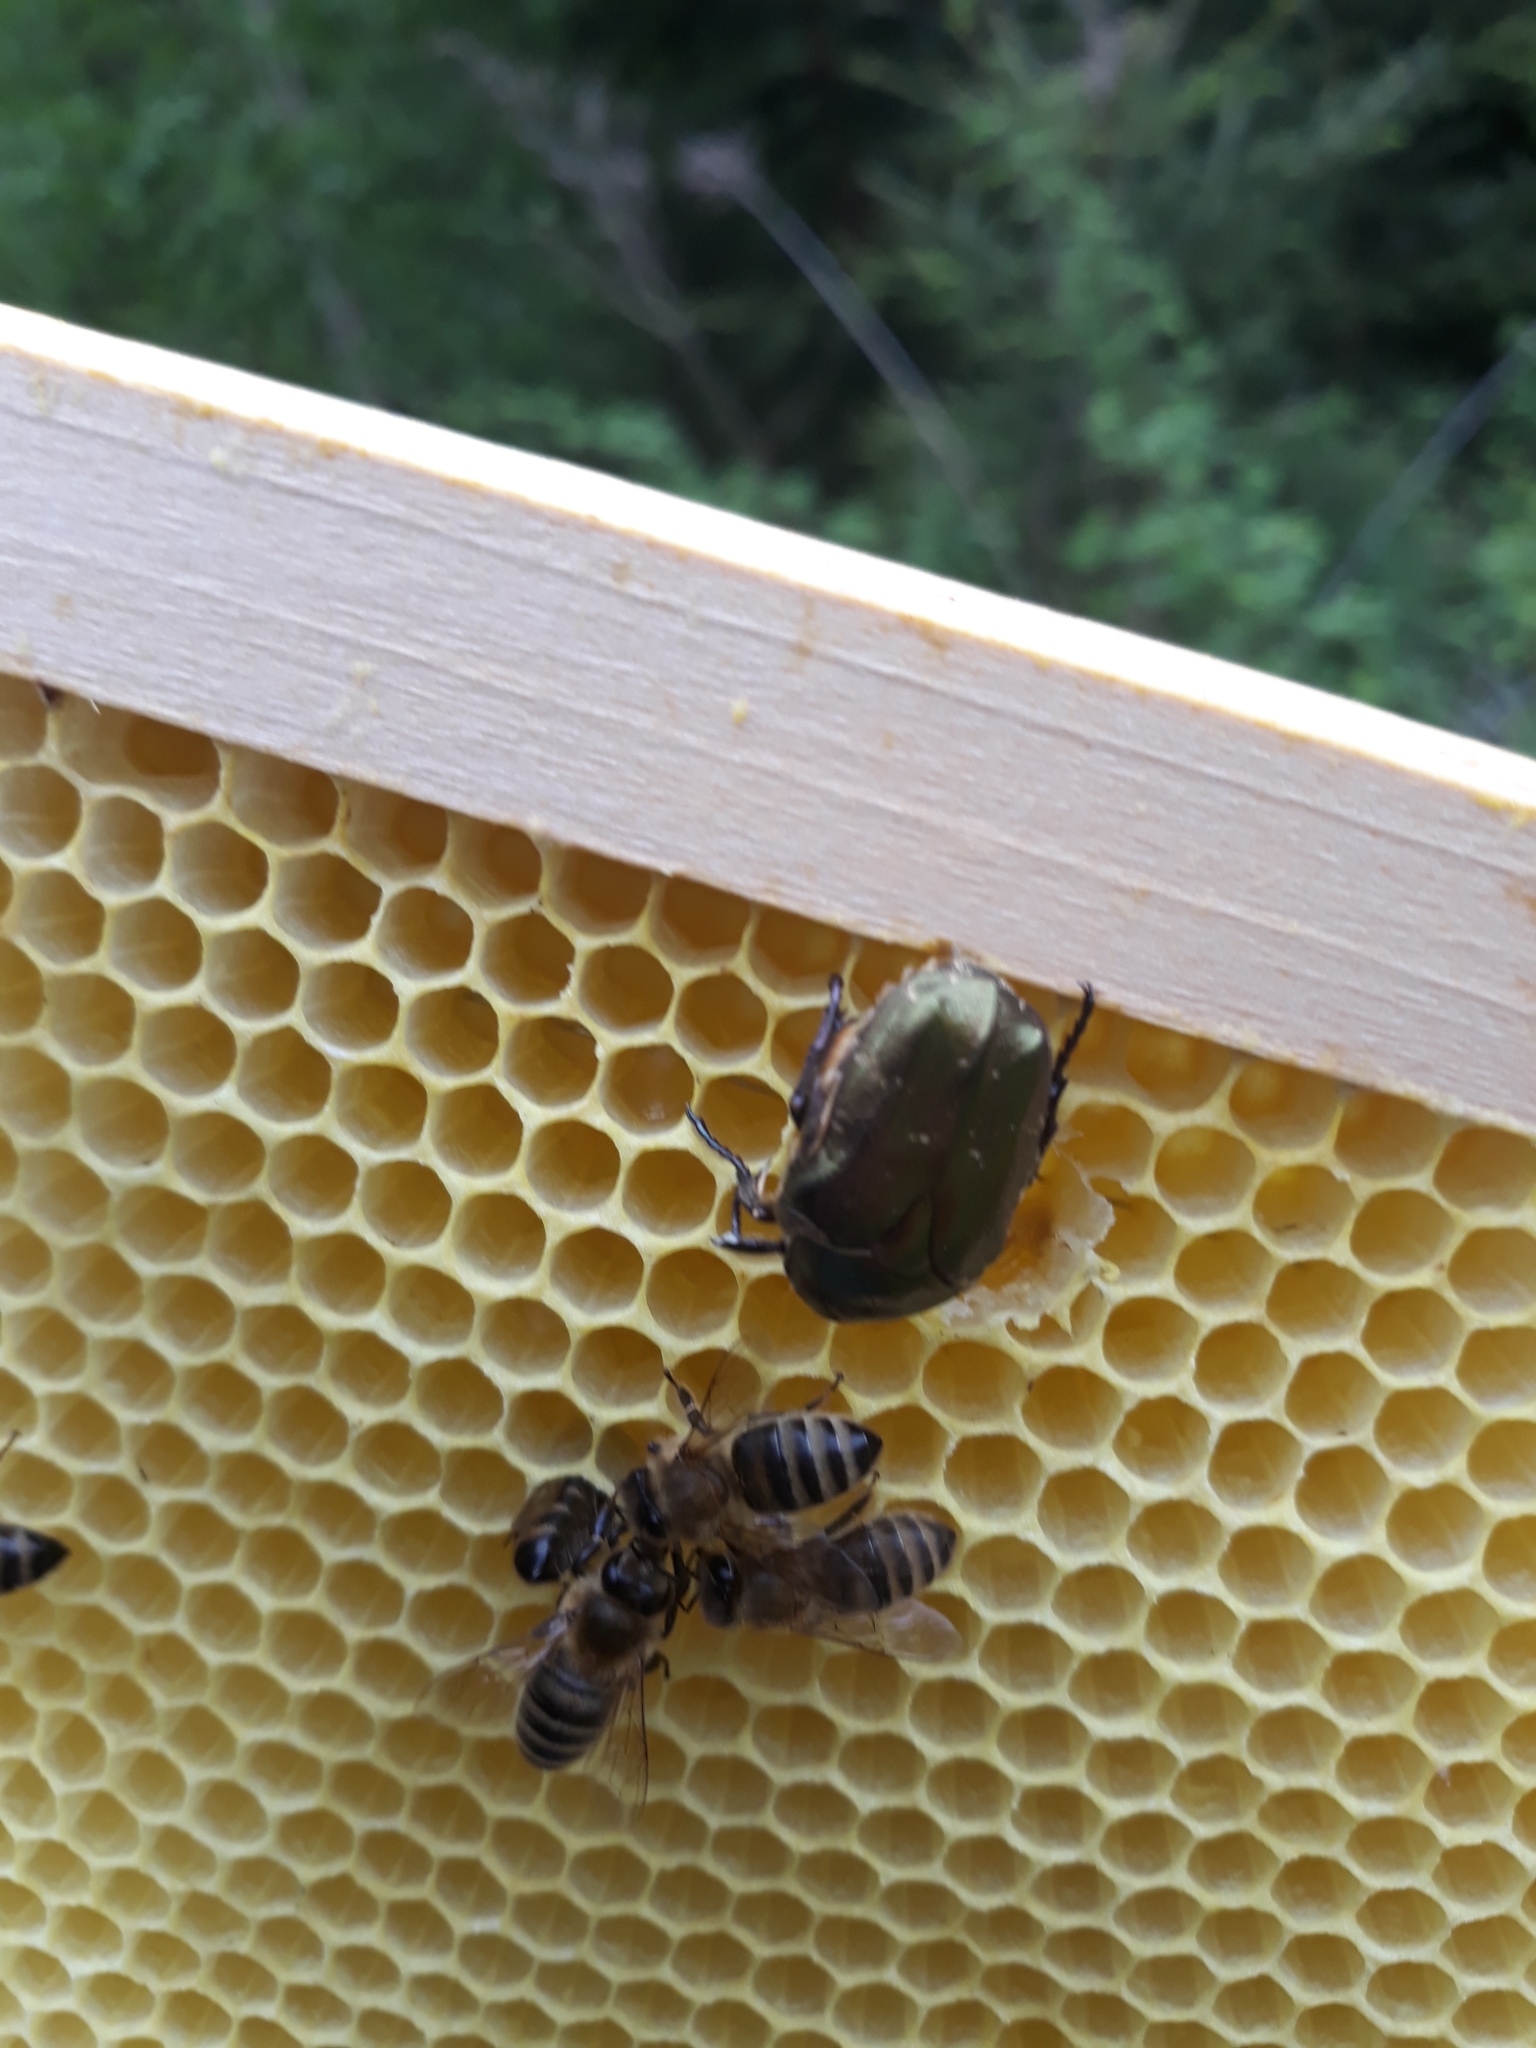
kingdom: Animalia
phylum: Arthropoda
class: Insecta
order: Coleoptera
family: Scarabaeidae
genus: Protaetia
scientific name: Protaetia cuprea
